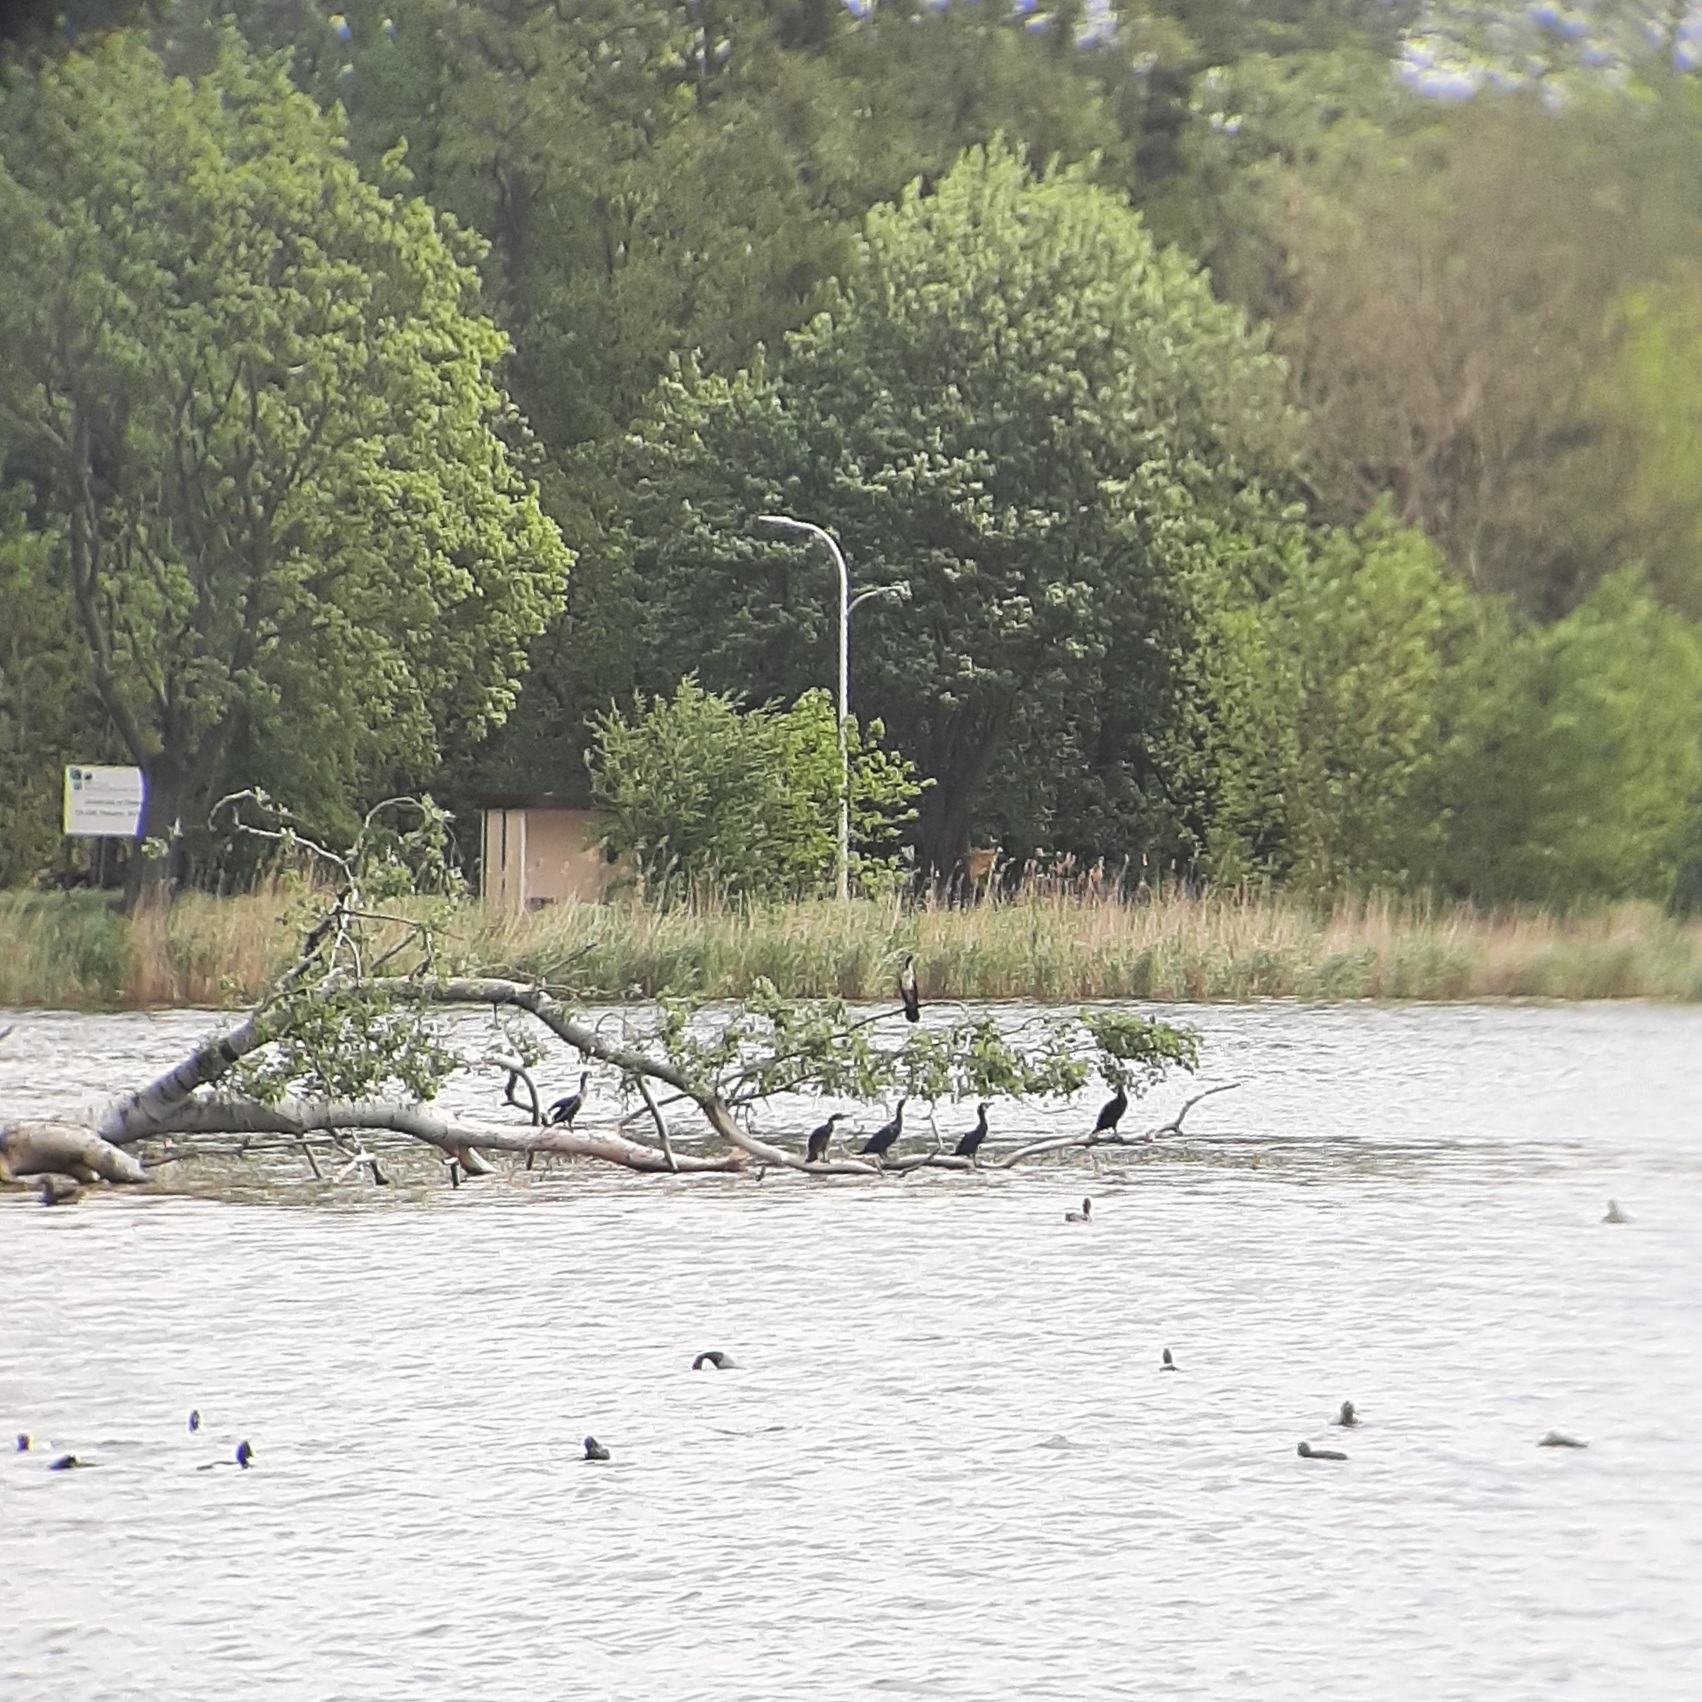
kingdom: Animalia
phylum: Chordata
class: Aves
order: Suliformes
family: Phalacrocoracidae
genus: Phalacrocorax
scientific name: Phalacrocorax carbo
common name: Great cormorant
